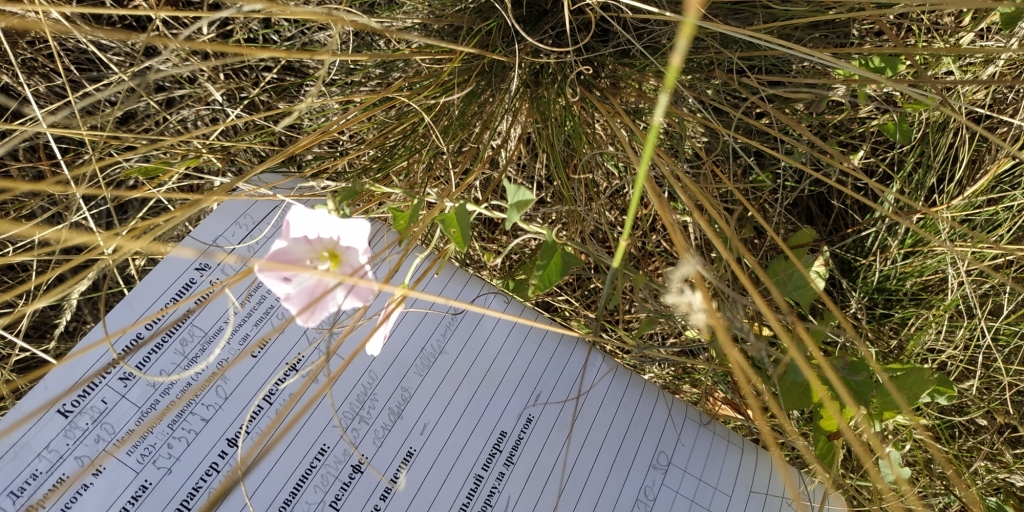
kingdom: Plantae
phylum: Tracheophyta
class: Magnoliopsida
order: Solanales
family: Convolvulaceae
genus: Convolvulus
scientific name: Convolvulus arvensis
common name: Field bindweed
